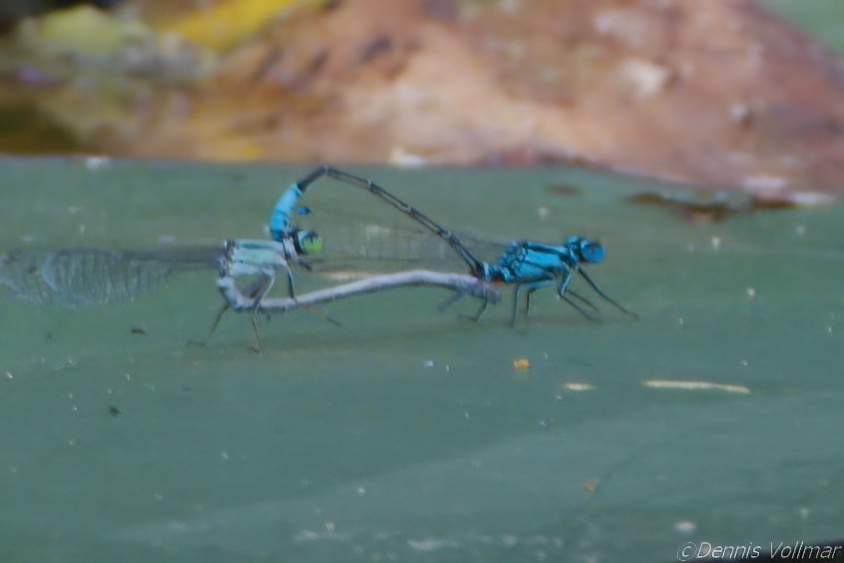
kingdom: Animalia
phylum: Arthropoda
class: Insecta
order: Odonata
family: Coenagrionidae
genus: Ischnura
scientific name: Ischnura kellicotti
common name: Lilypad forktail
